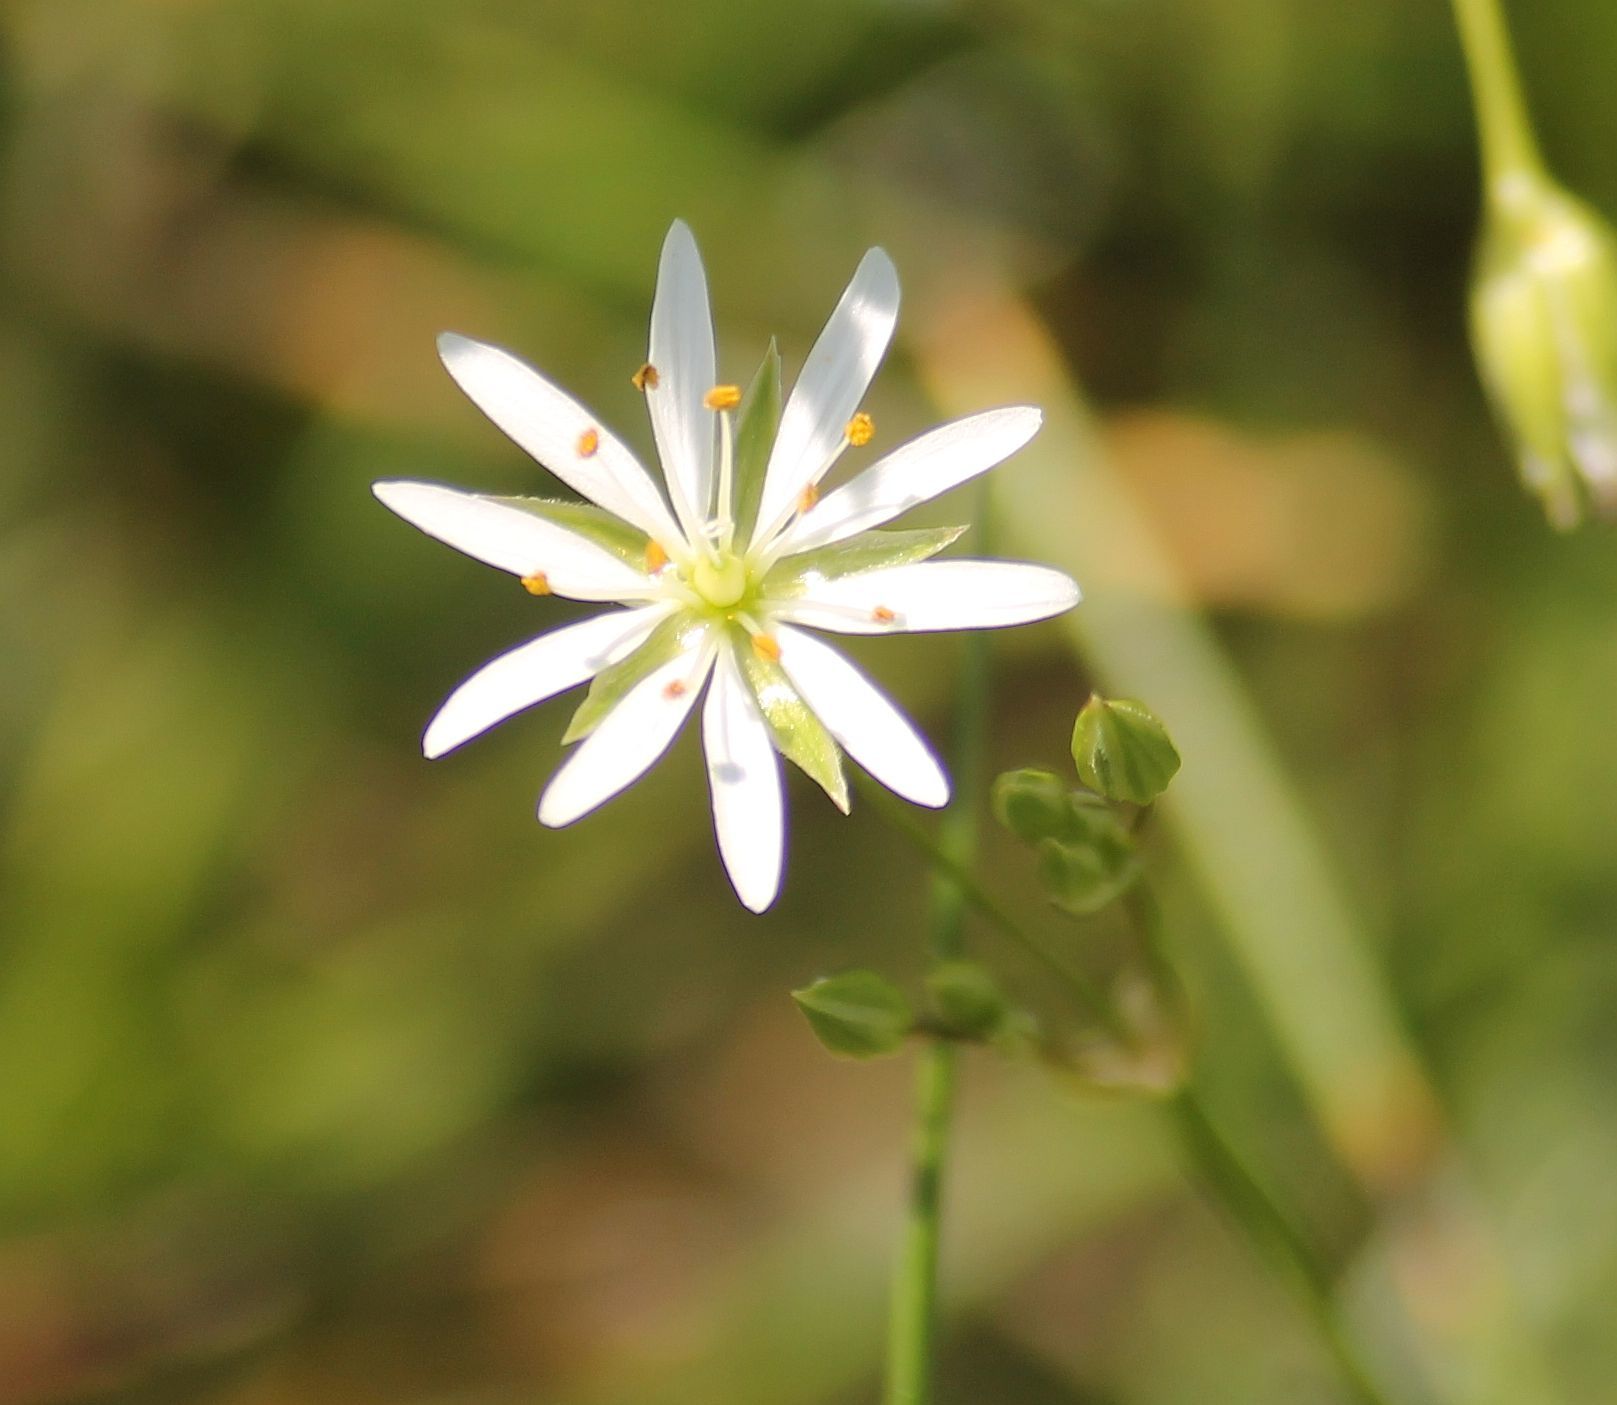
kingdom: Plantae
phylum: Tracheophyta
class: Magnoliopsida
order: Caryophyllales
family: Caryophyllaceae
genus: Stellaria
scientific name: Stellaria graminea
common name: Grass-like starwort
